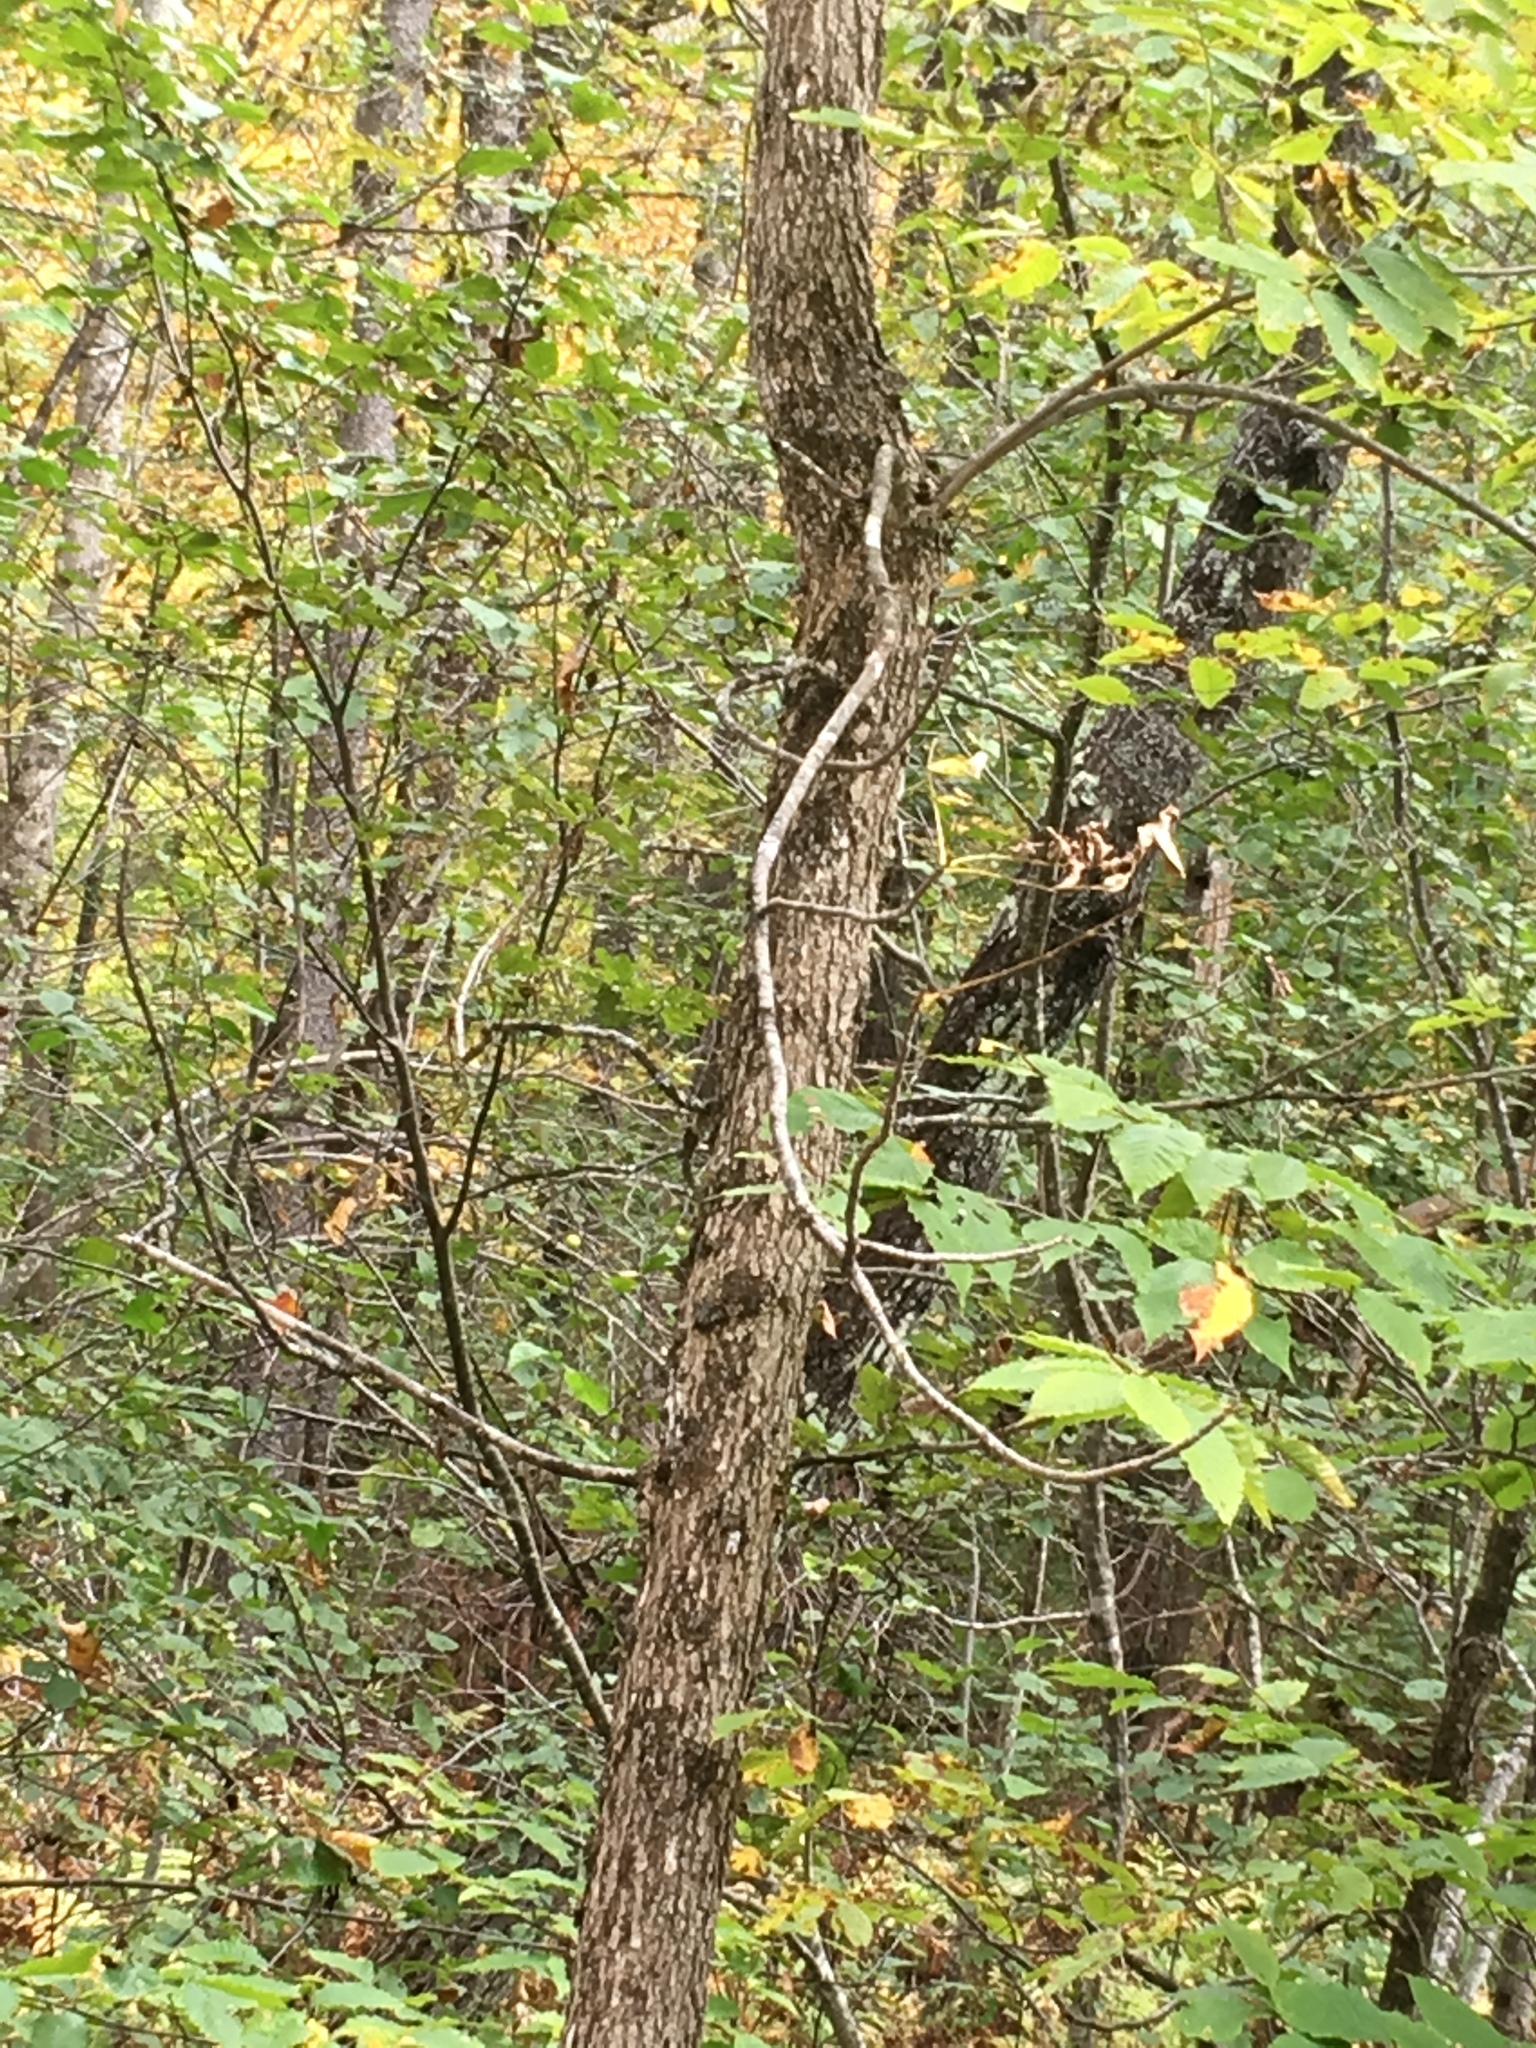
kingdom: Plantae
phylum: Tracheophyta
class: Magnoliopsida
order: Lamiales
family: Oleaceae
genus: Fraxinus
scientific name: Fraxinus nigra
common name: Black ash
